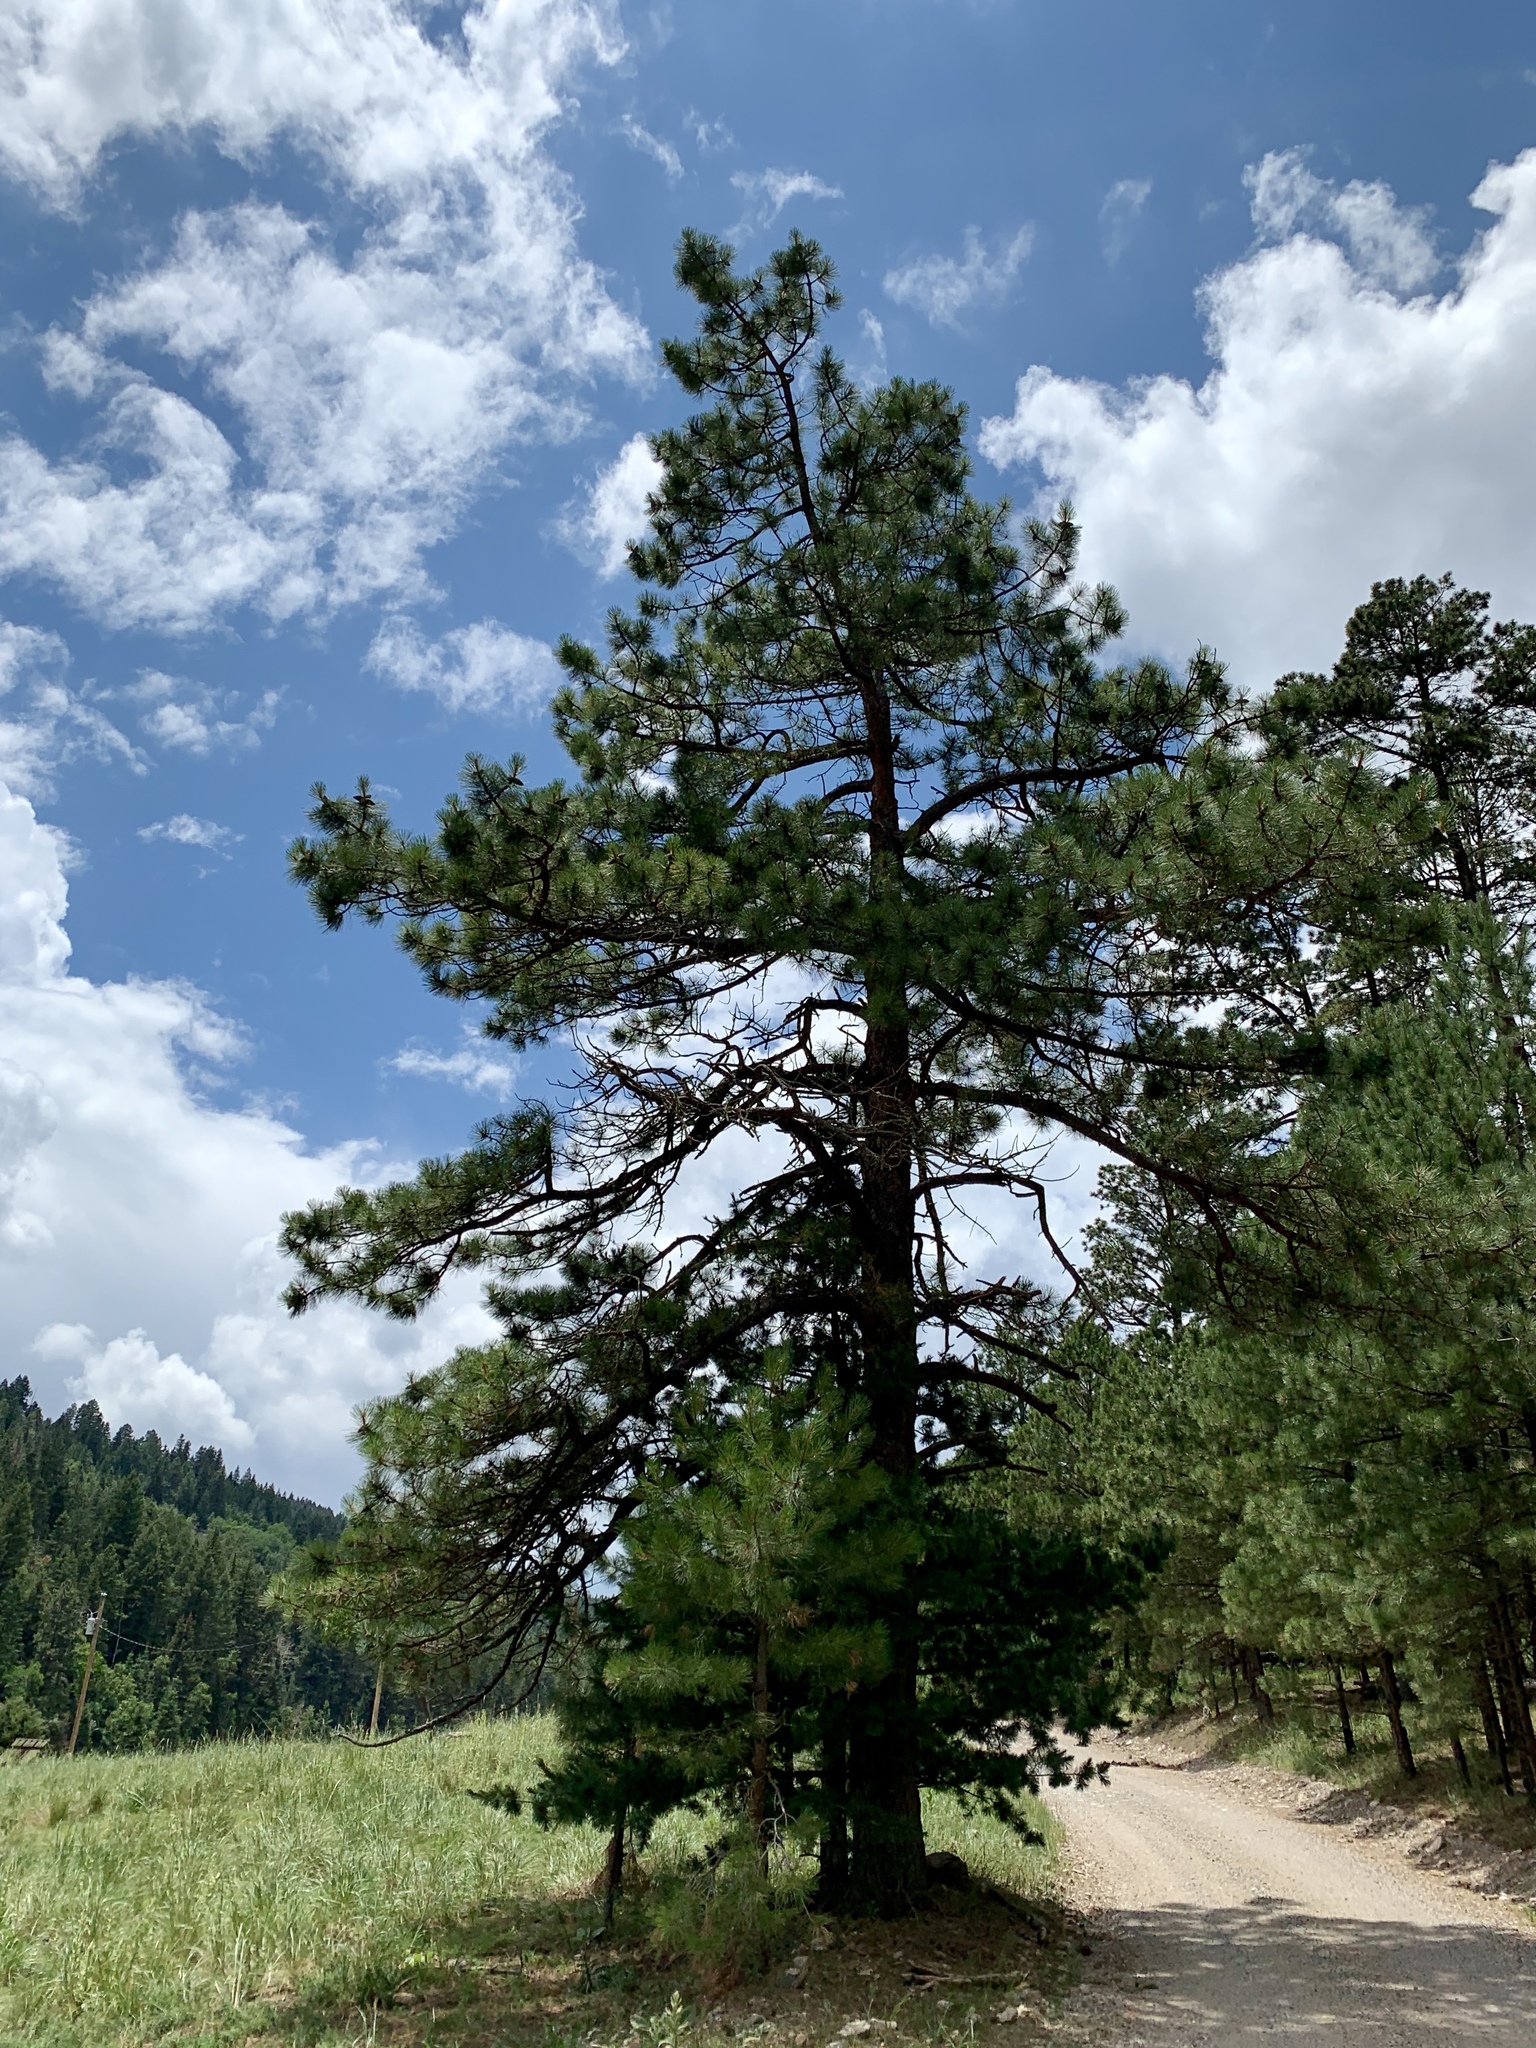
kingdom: Plantae
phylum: Tracheophyta
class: Pinopsida
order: Pinales
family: Pinaceae
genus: Pinus
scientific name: Pinus ponderosa
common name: Western yellow-pine
